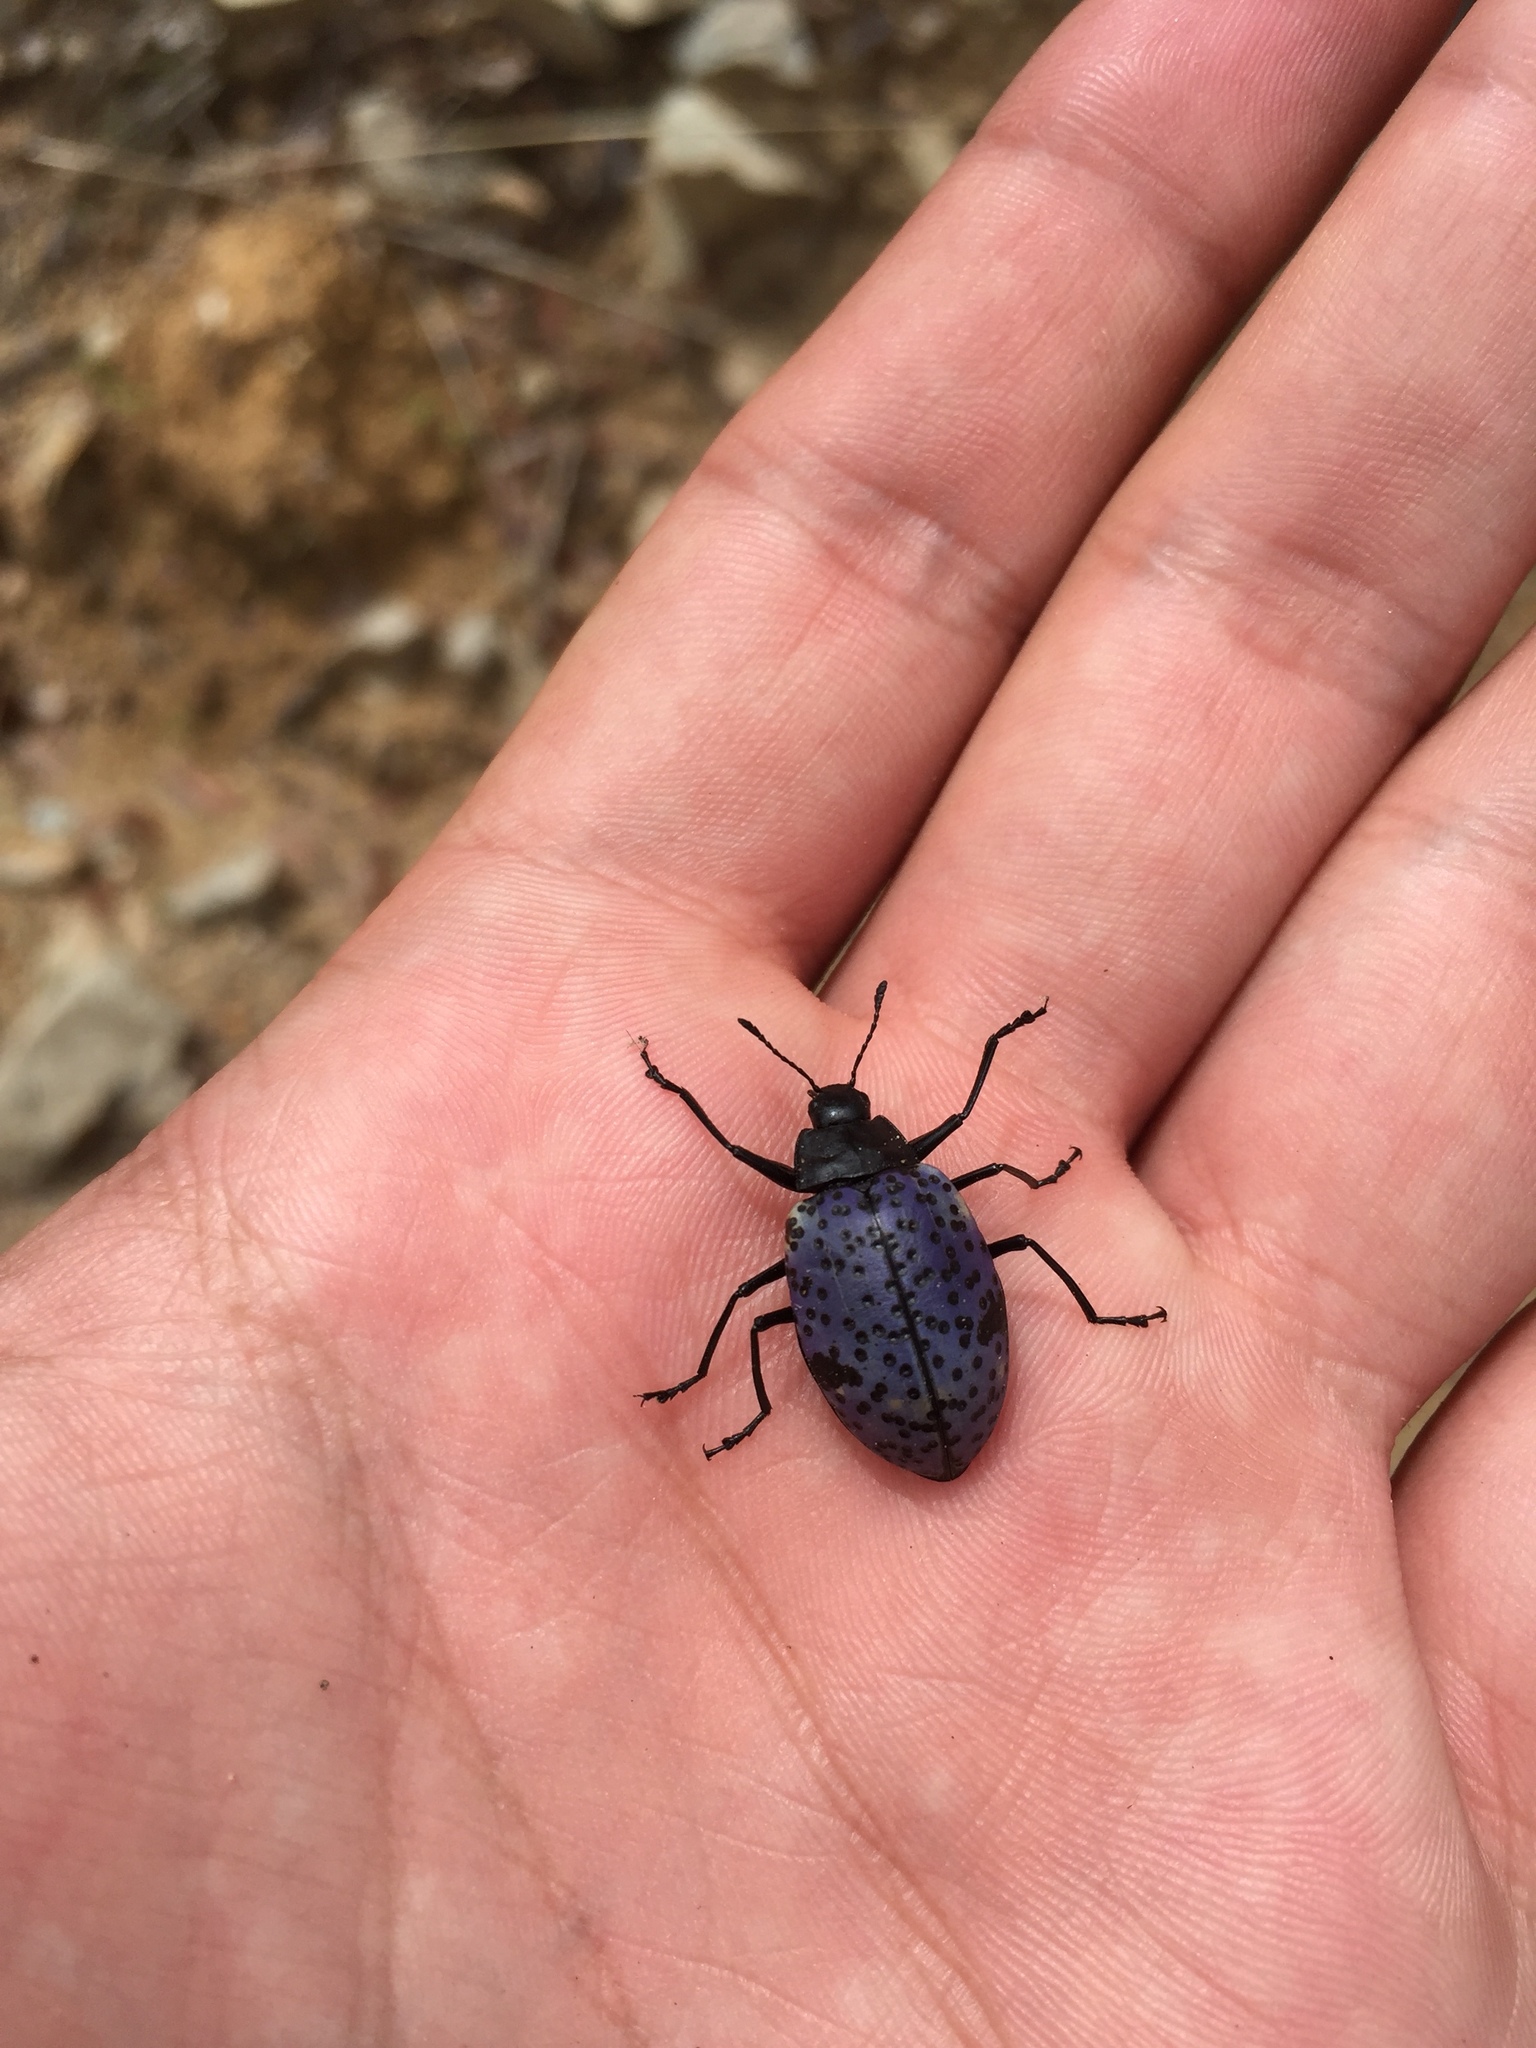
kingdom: Animalia
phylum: Arthropoda
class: Insecta
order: Coleoptera
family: Erotylidae
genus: Gibbifer
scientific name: Gibbifer californicus
